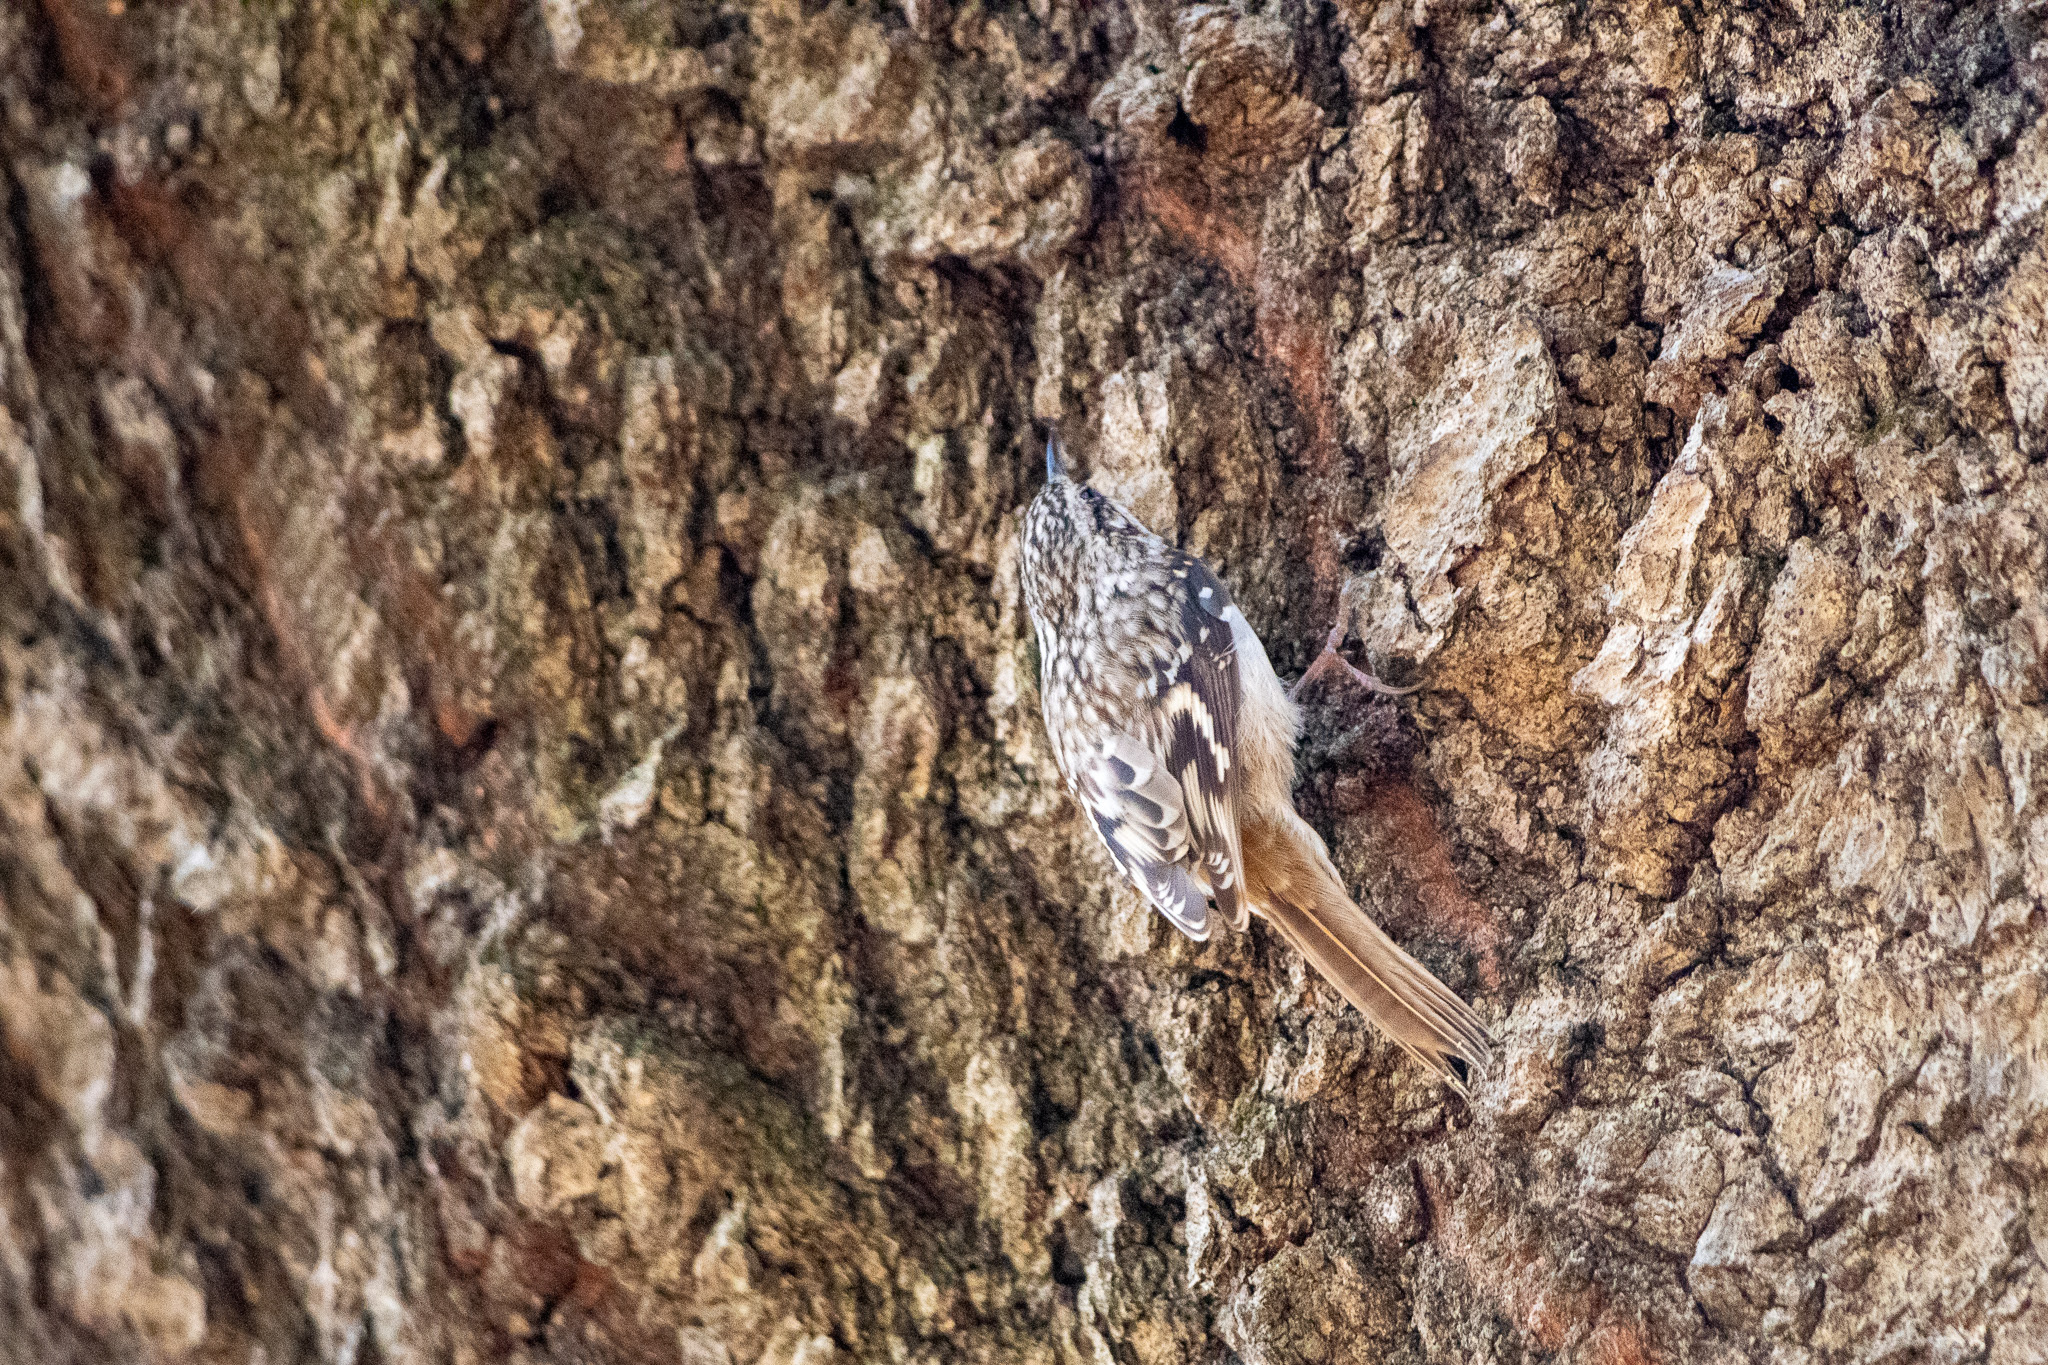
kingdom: Animalia
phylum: Chordata
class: Aves
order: Passeriformes
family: Certhiidae
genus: Certhia
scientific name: Certhia americana
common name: Brown creeper
